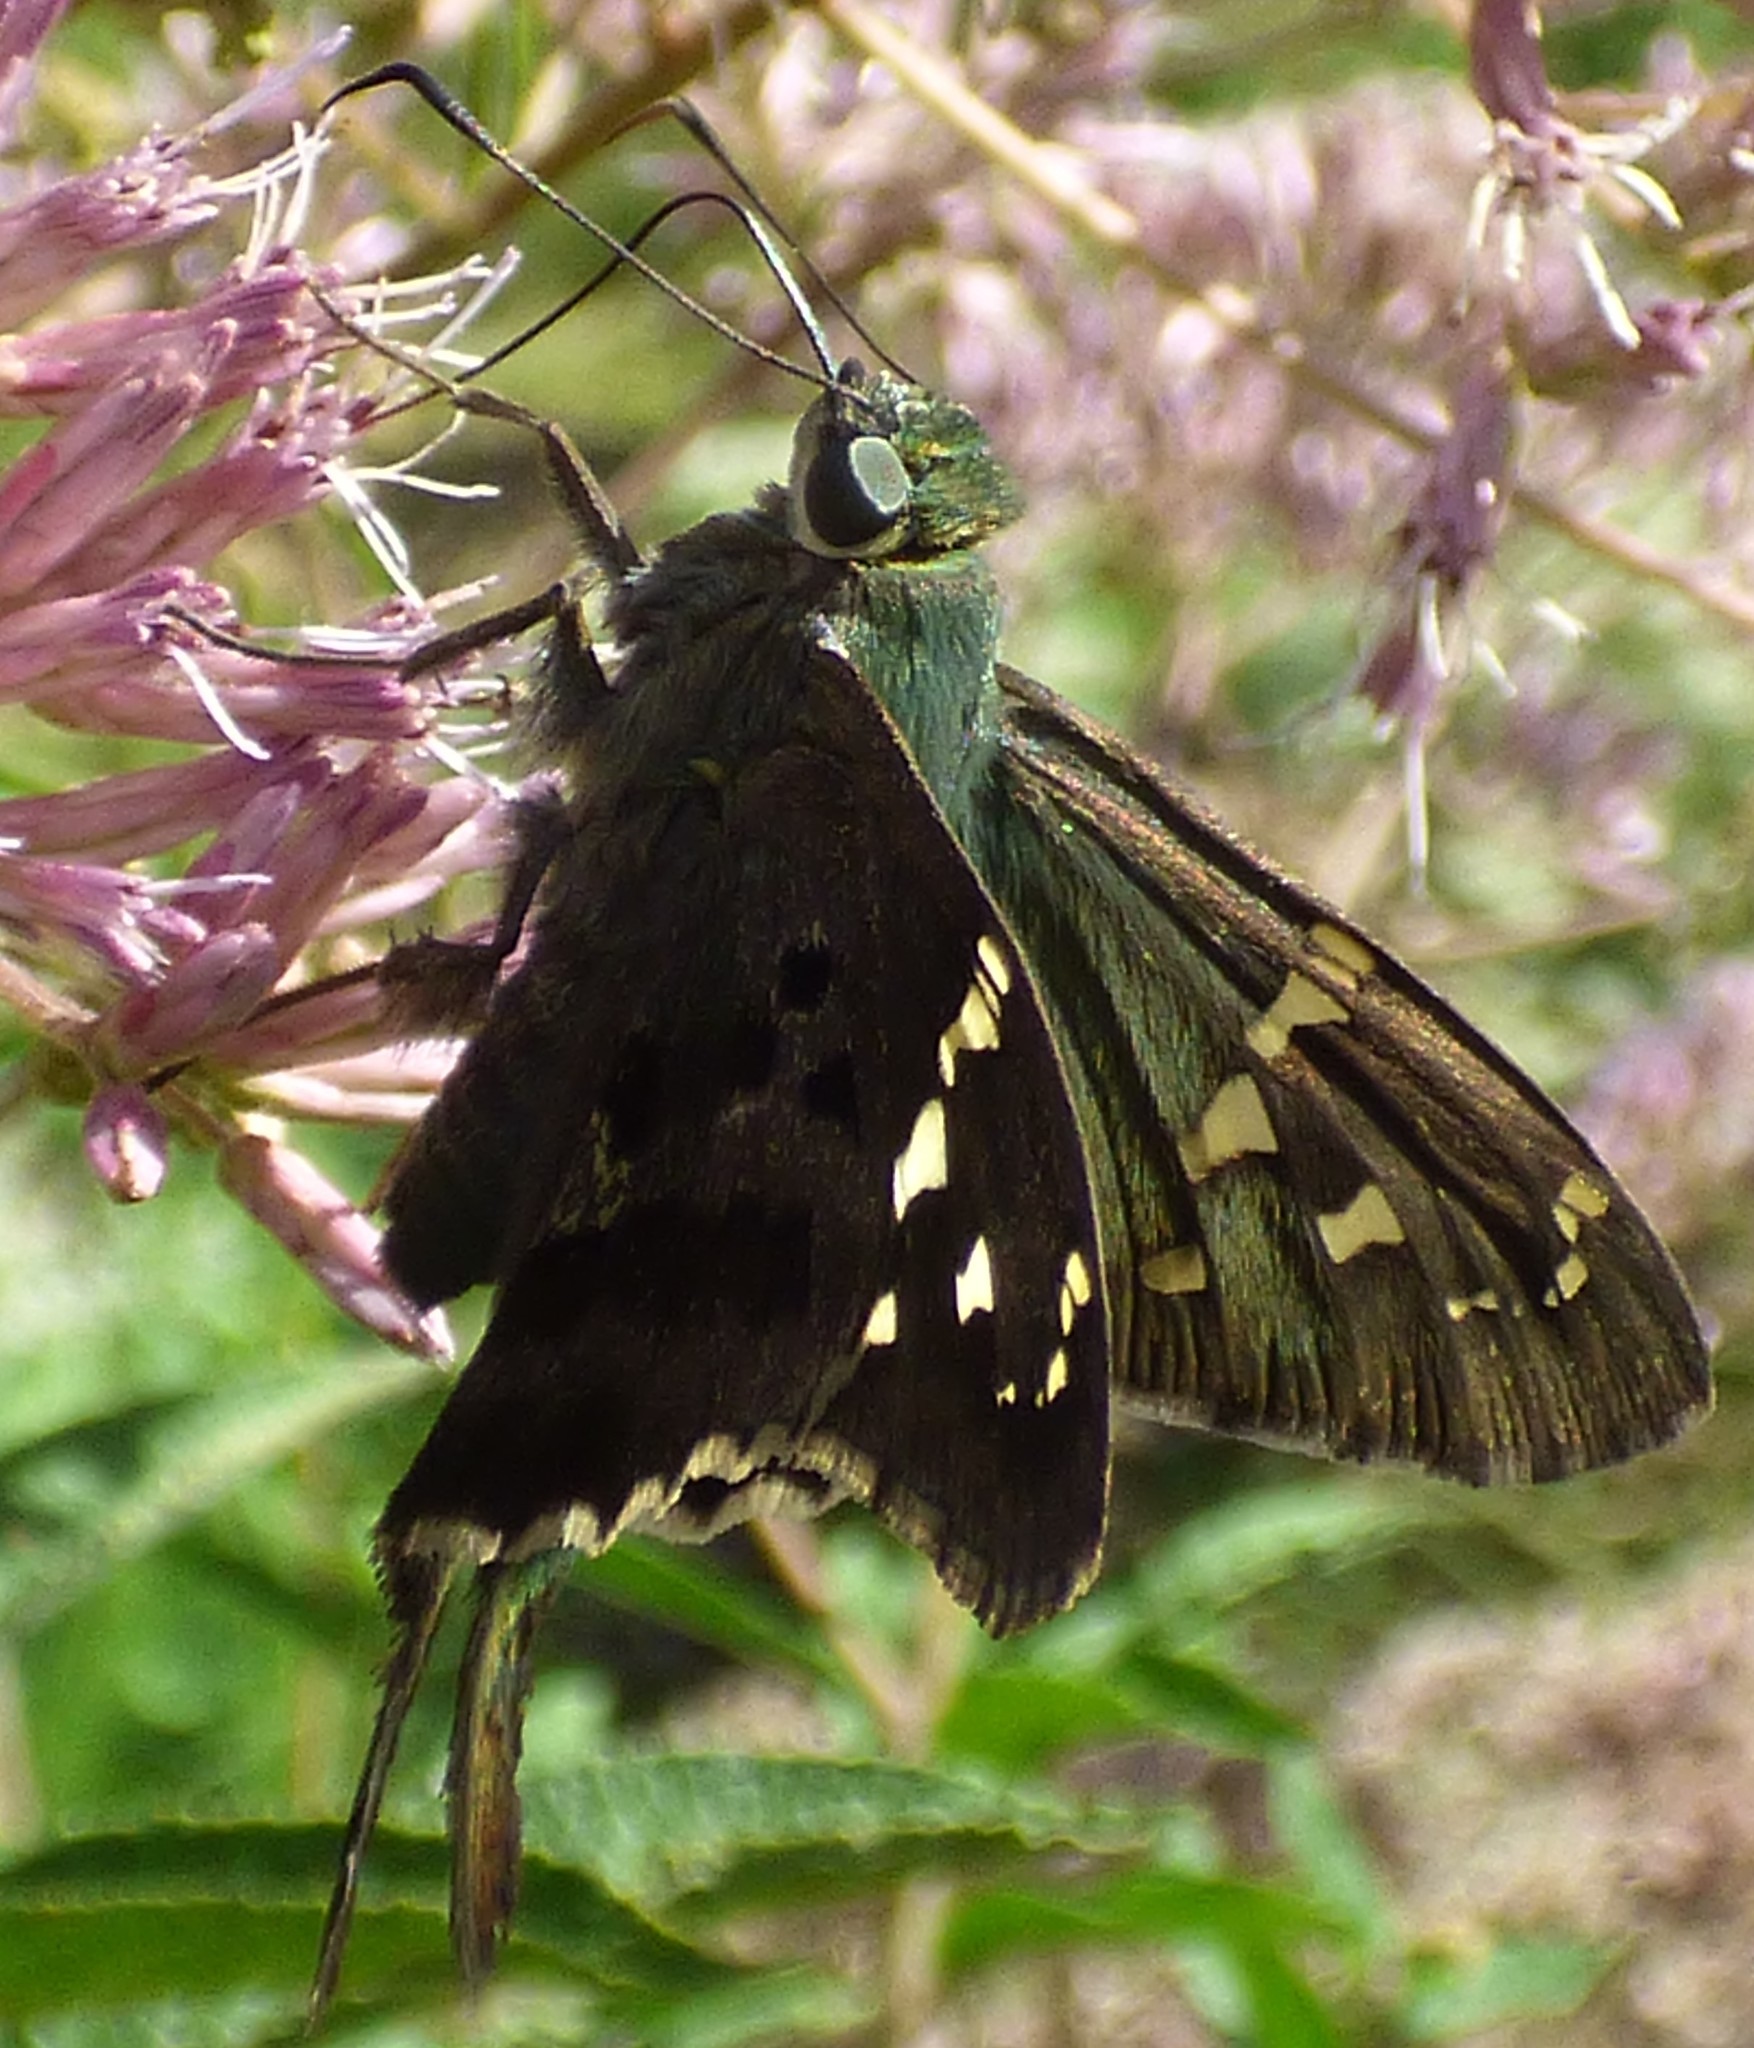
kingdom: Animalia
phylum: Arthropoda
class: Insecta
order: Lepidoptera
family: Hesperiidae
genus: Urbanus
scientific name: Urbanus proteus
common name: Long-tailed skipper
